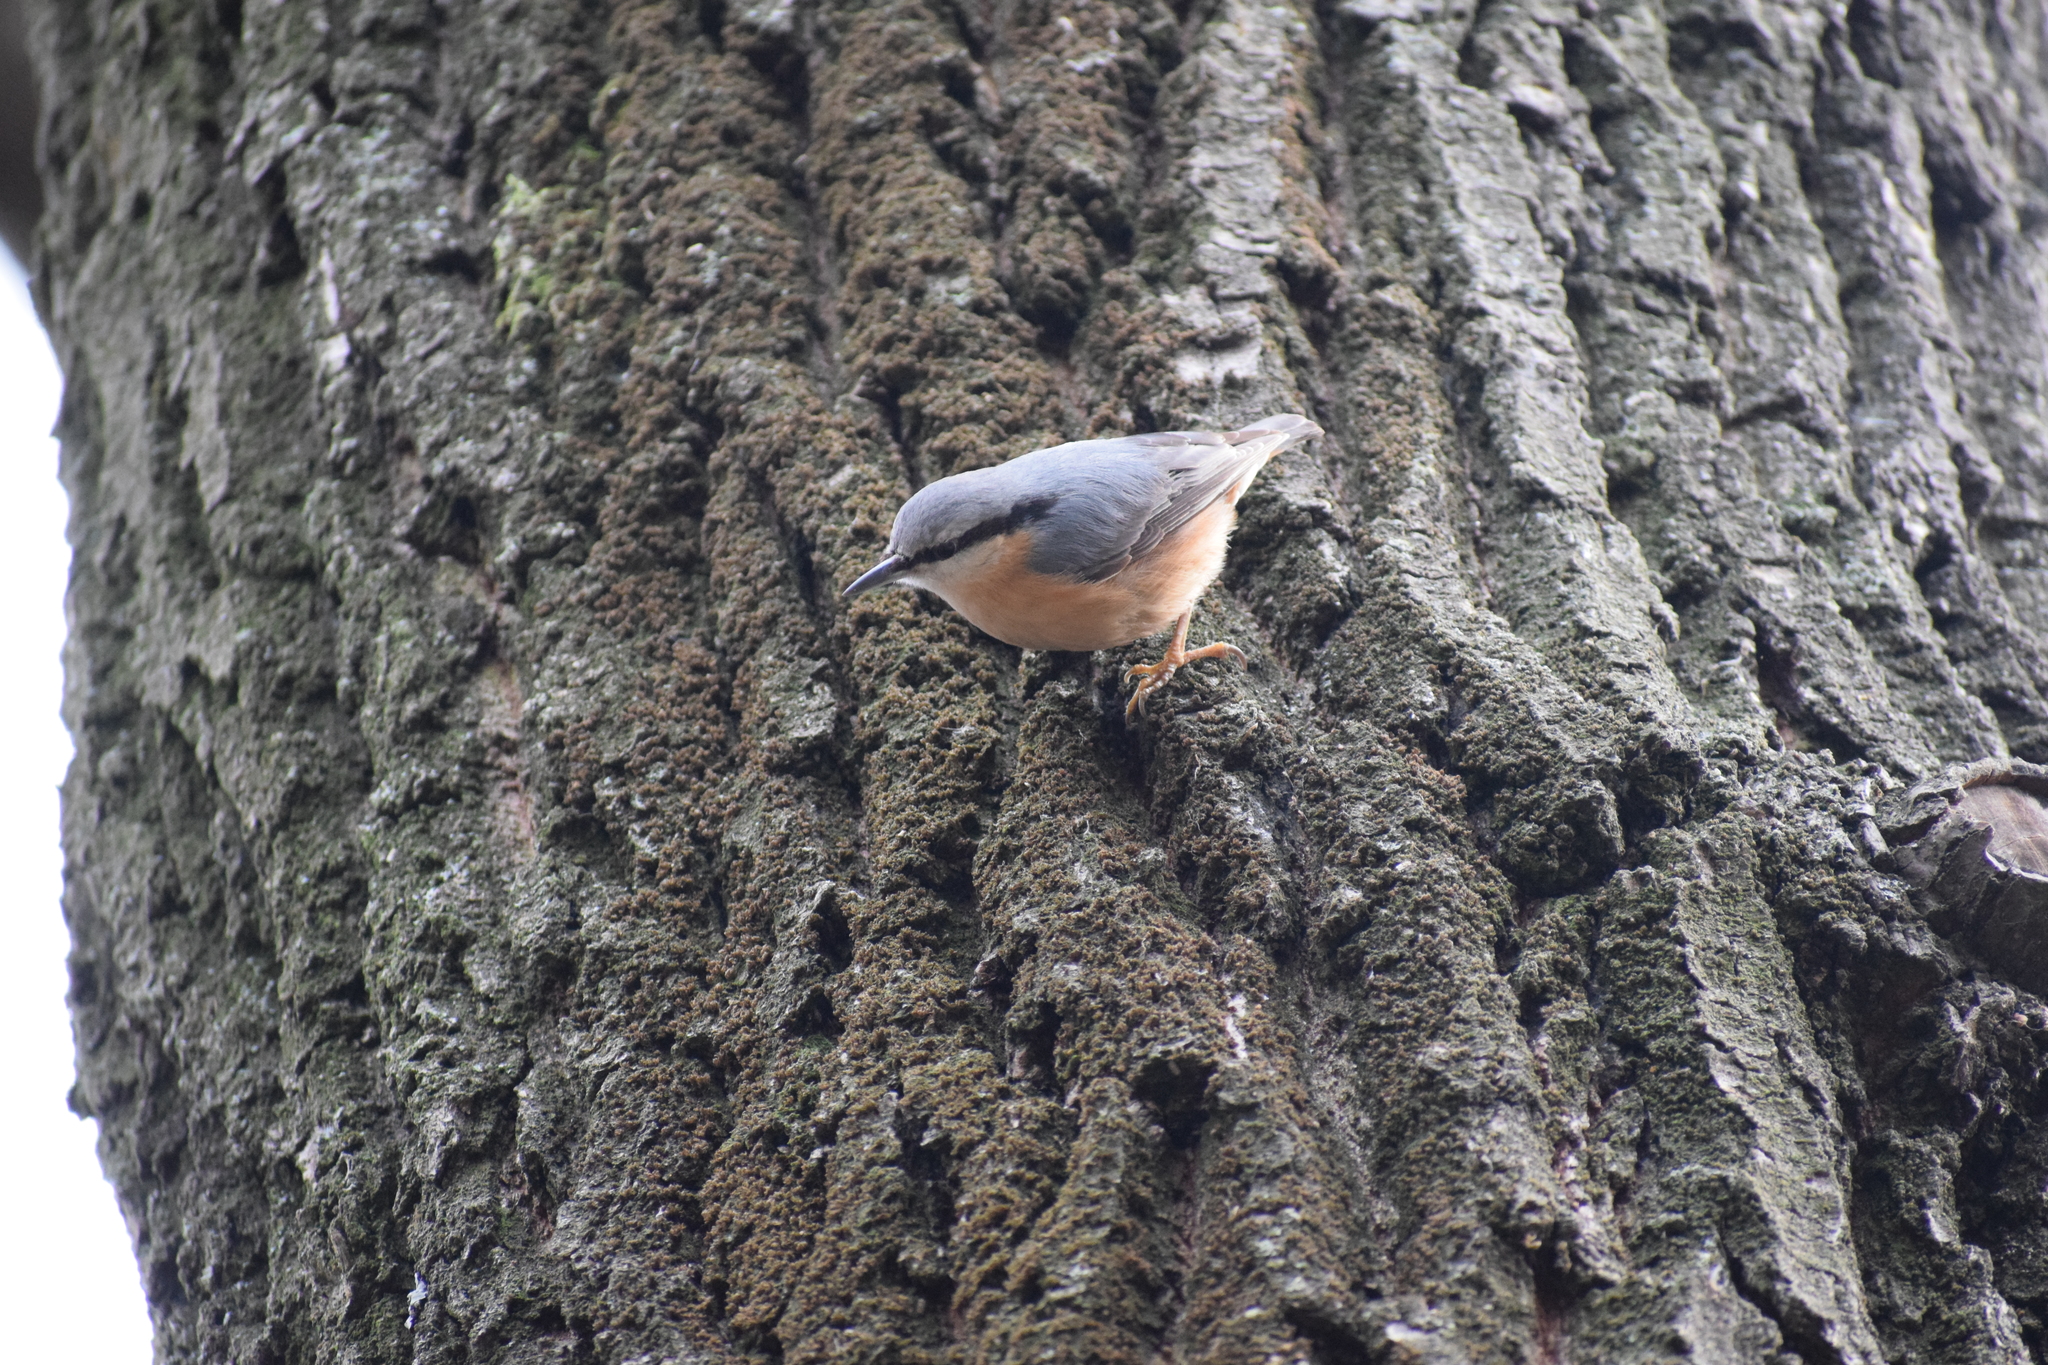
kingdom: Animalia
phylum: Chordata
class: Aves
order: Passeriformes
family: Sittidae
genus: Sitta
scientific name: Sitta europaea
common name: Eurasian nuthatch
